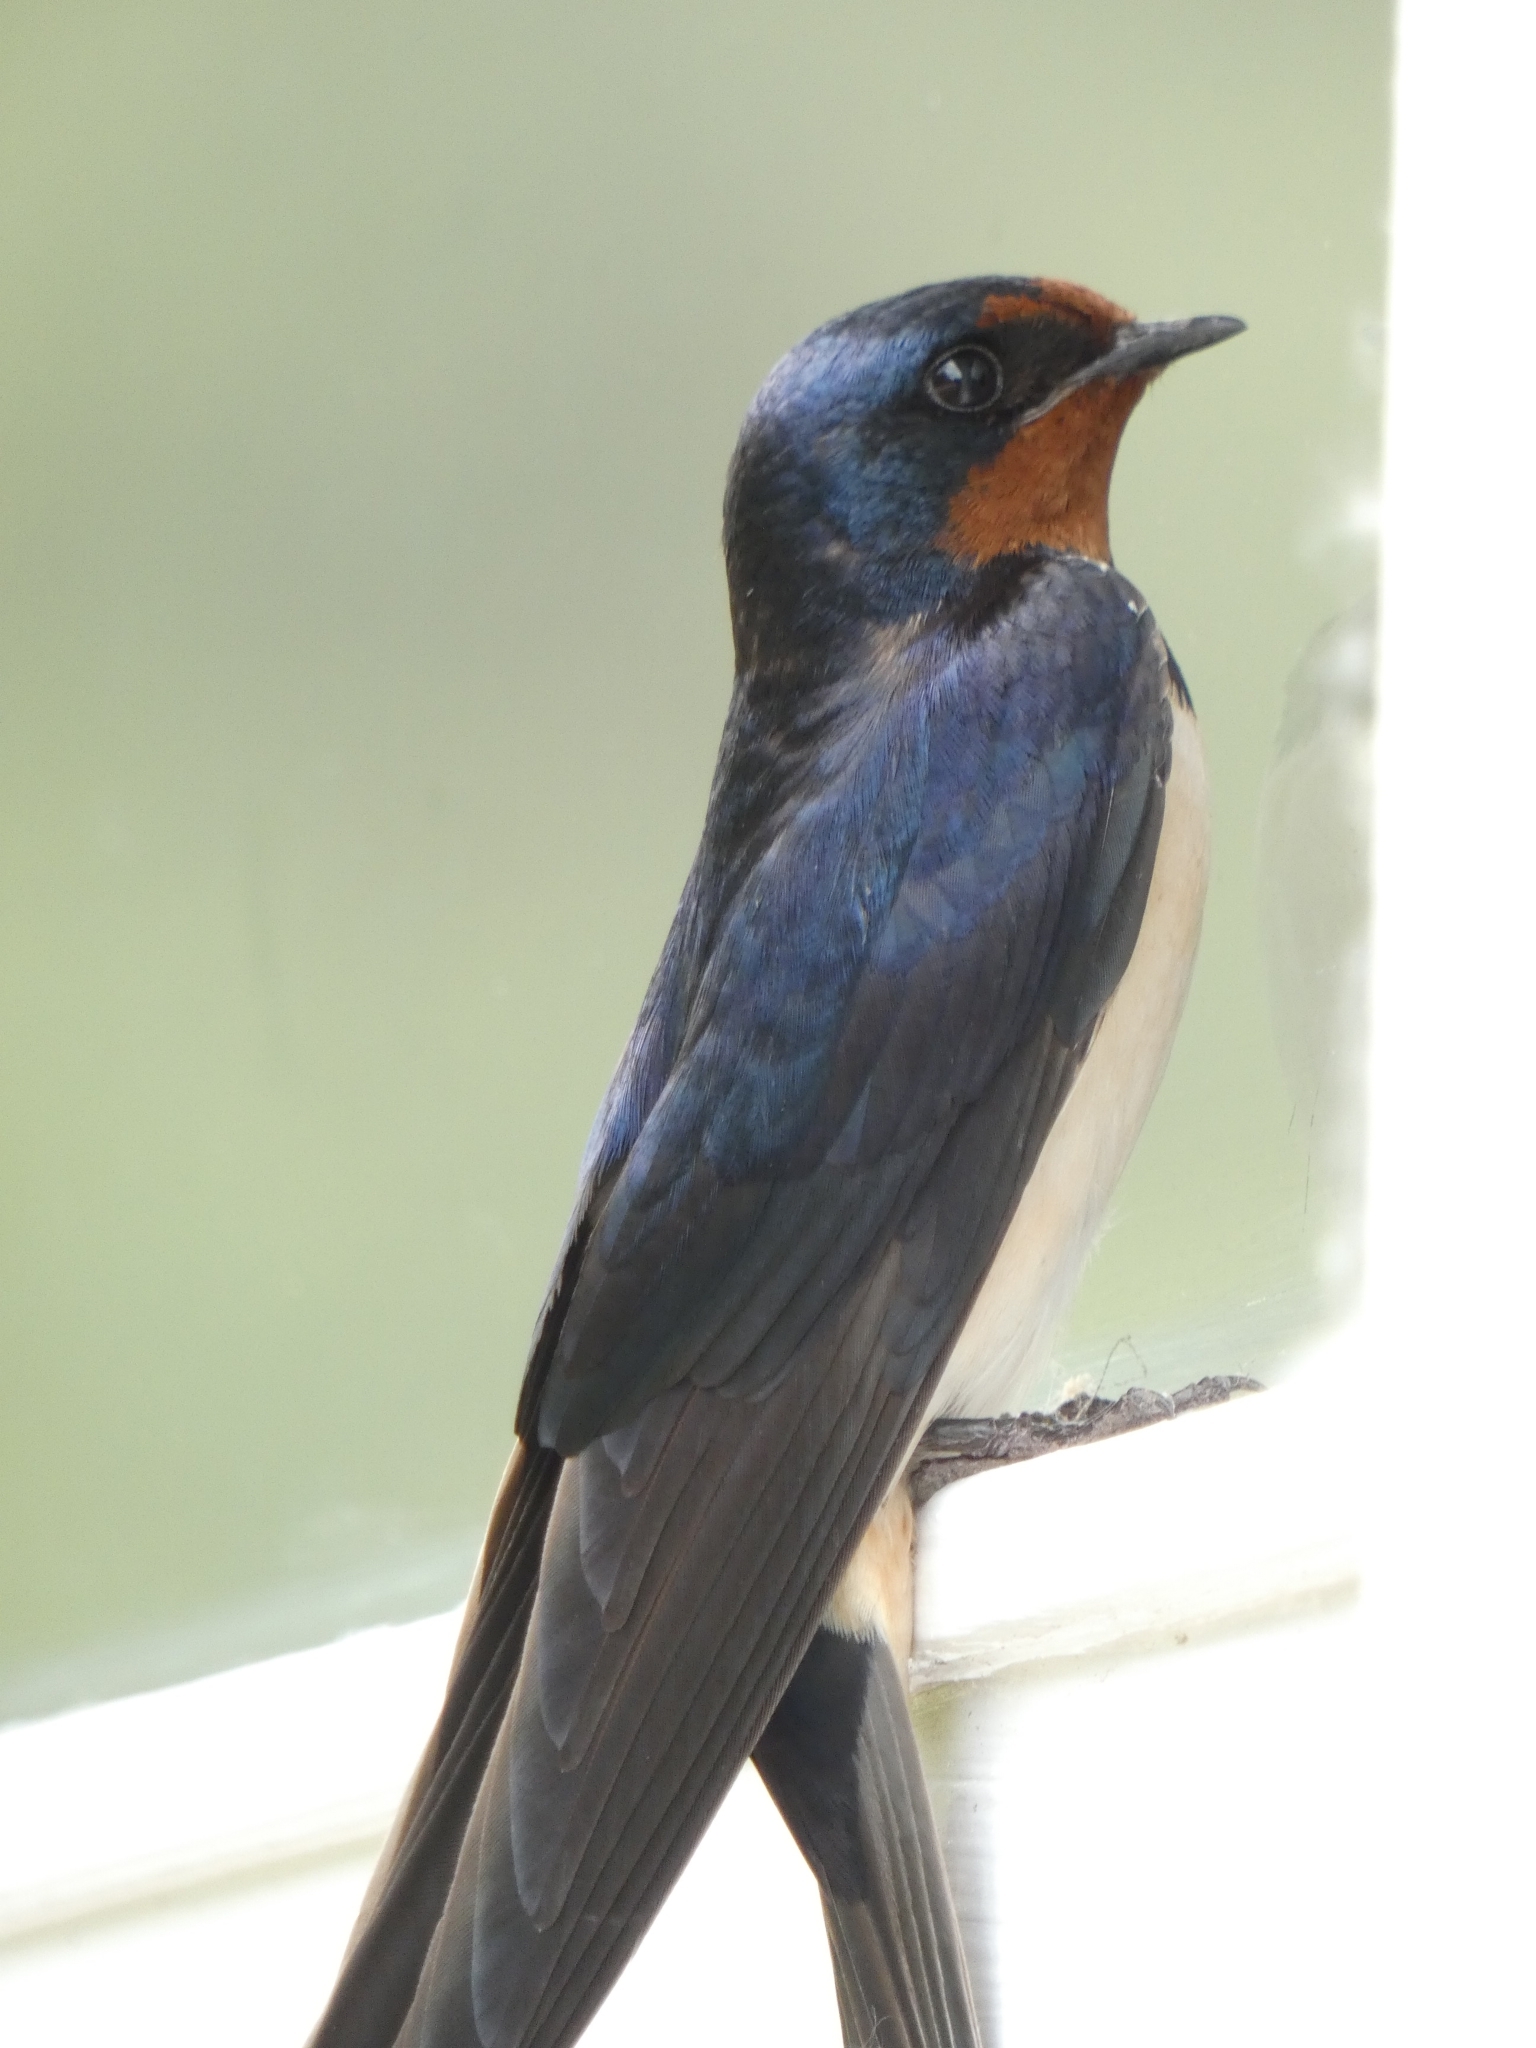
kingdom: Animalia
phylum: Chordata
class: Aves
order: Passeriformes
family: Hirundinidae
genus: Hirundo
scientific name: Hirundo rustica
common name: Barn swallow
